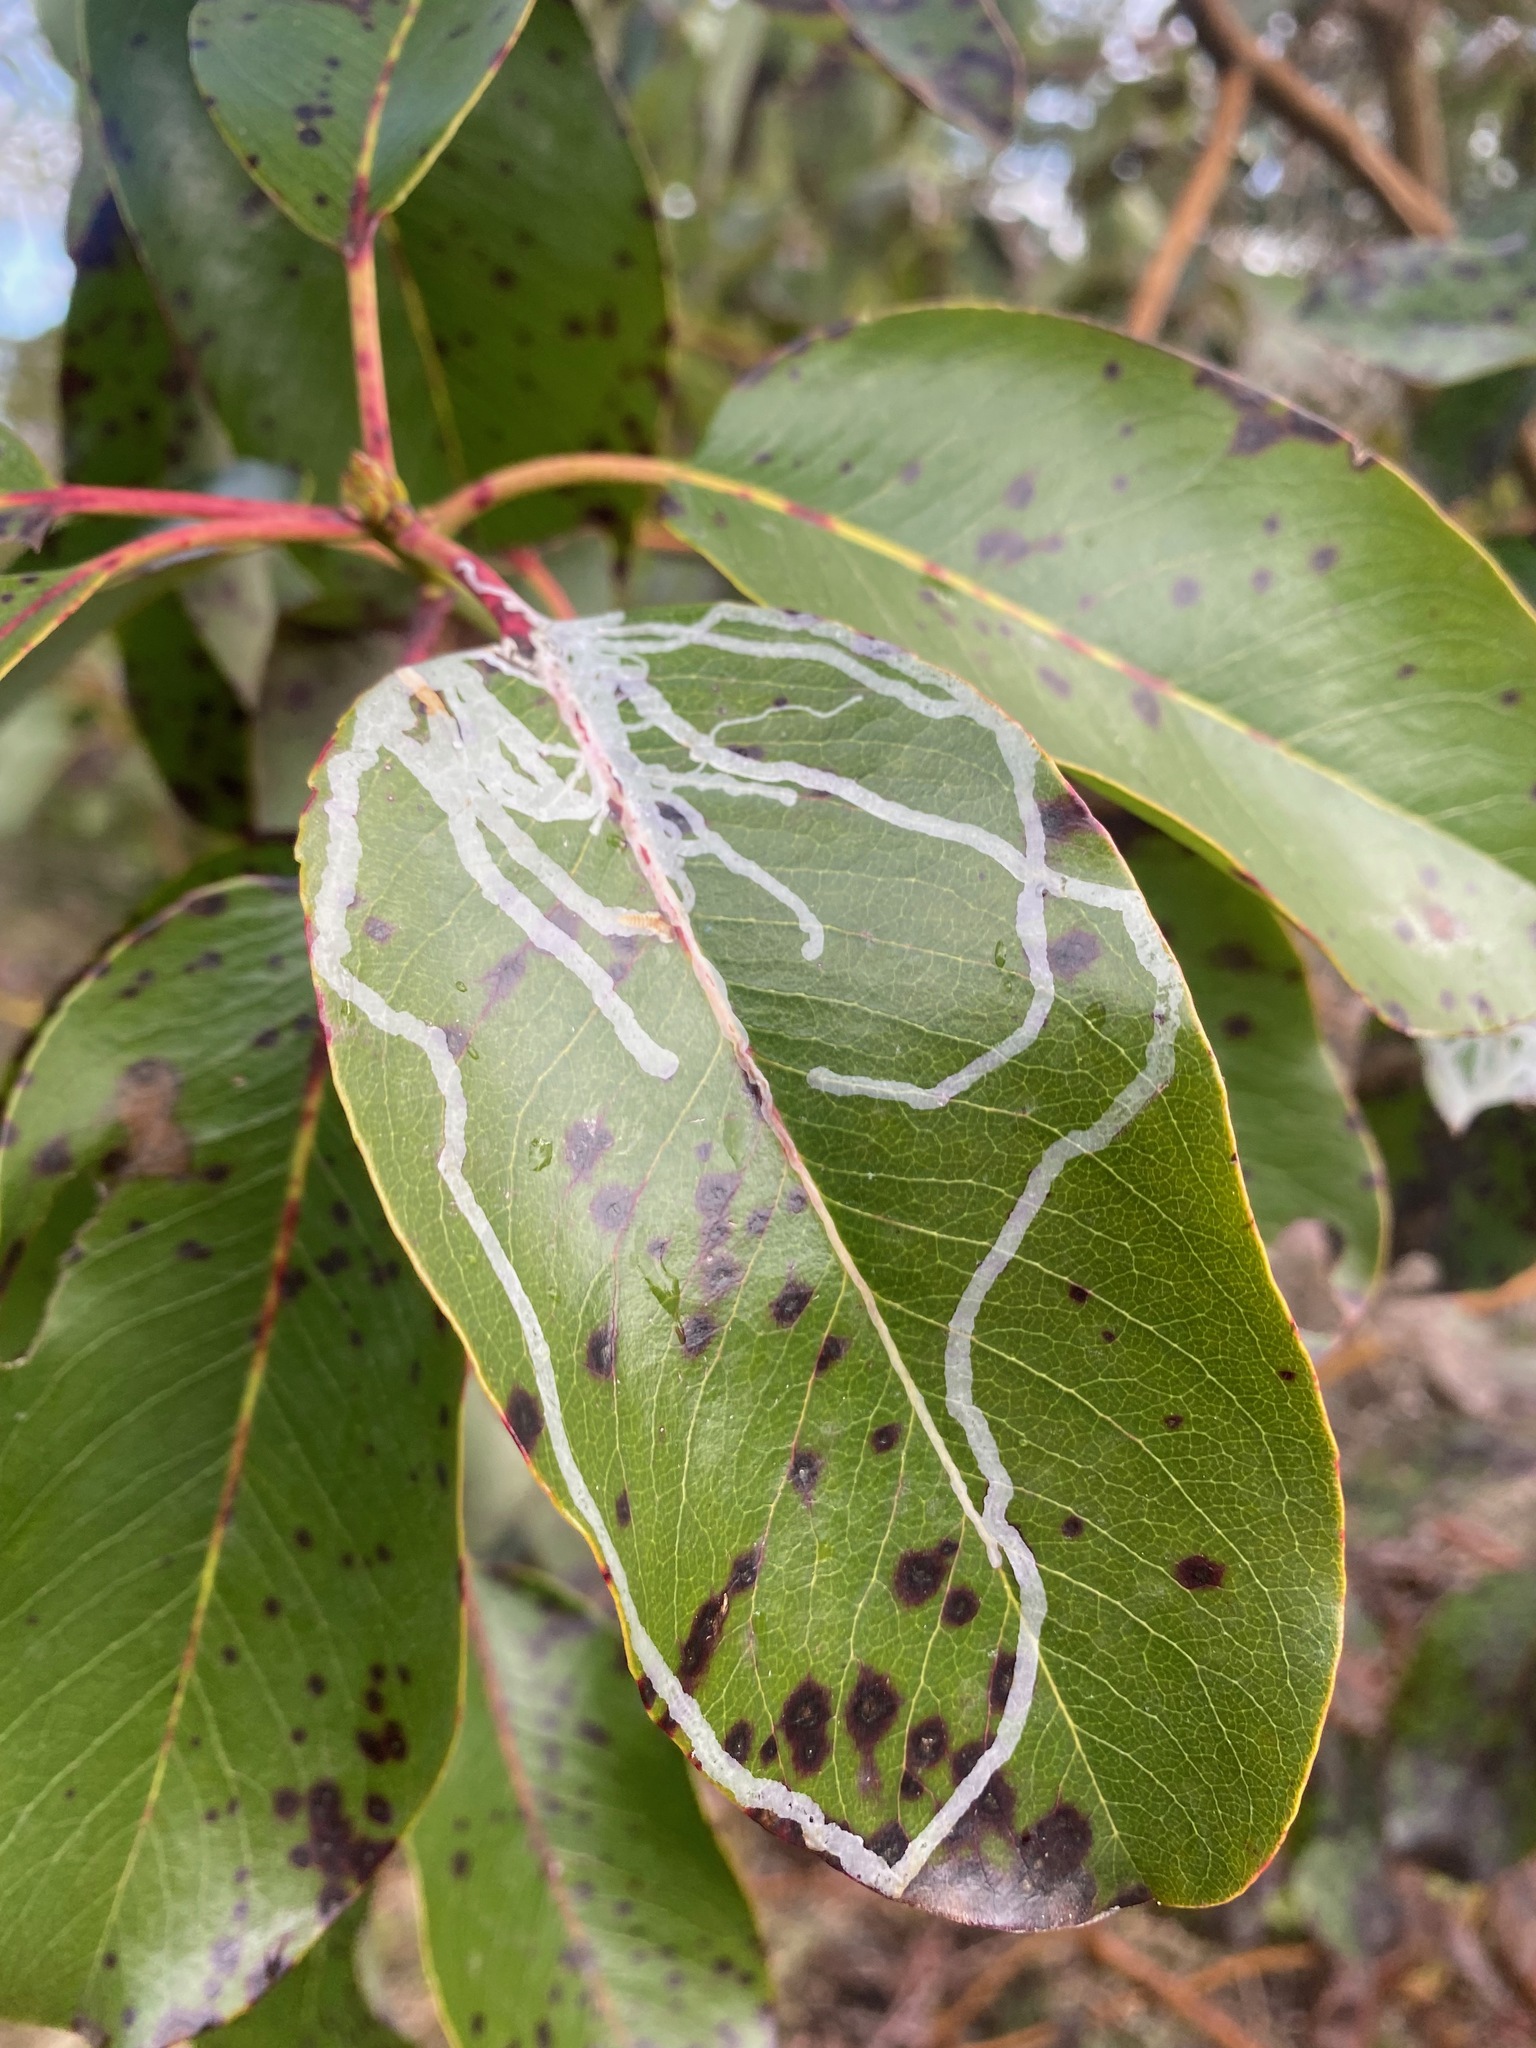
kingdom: Animalia
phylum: Arthropoda
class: Insecta
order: Lepidoptera
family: Gracillariidae
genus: Marmara
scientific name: Marmara arbutiella
